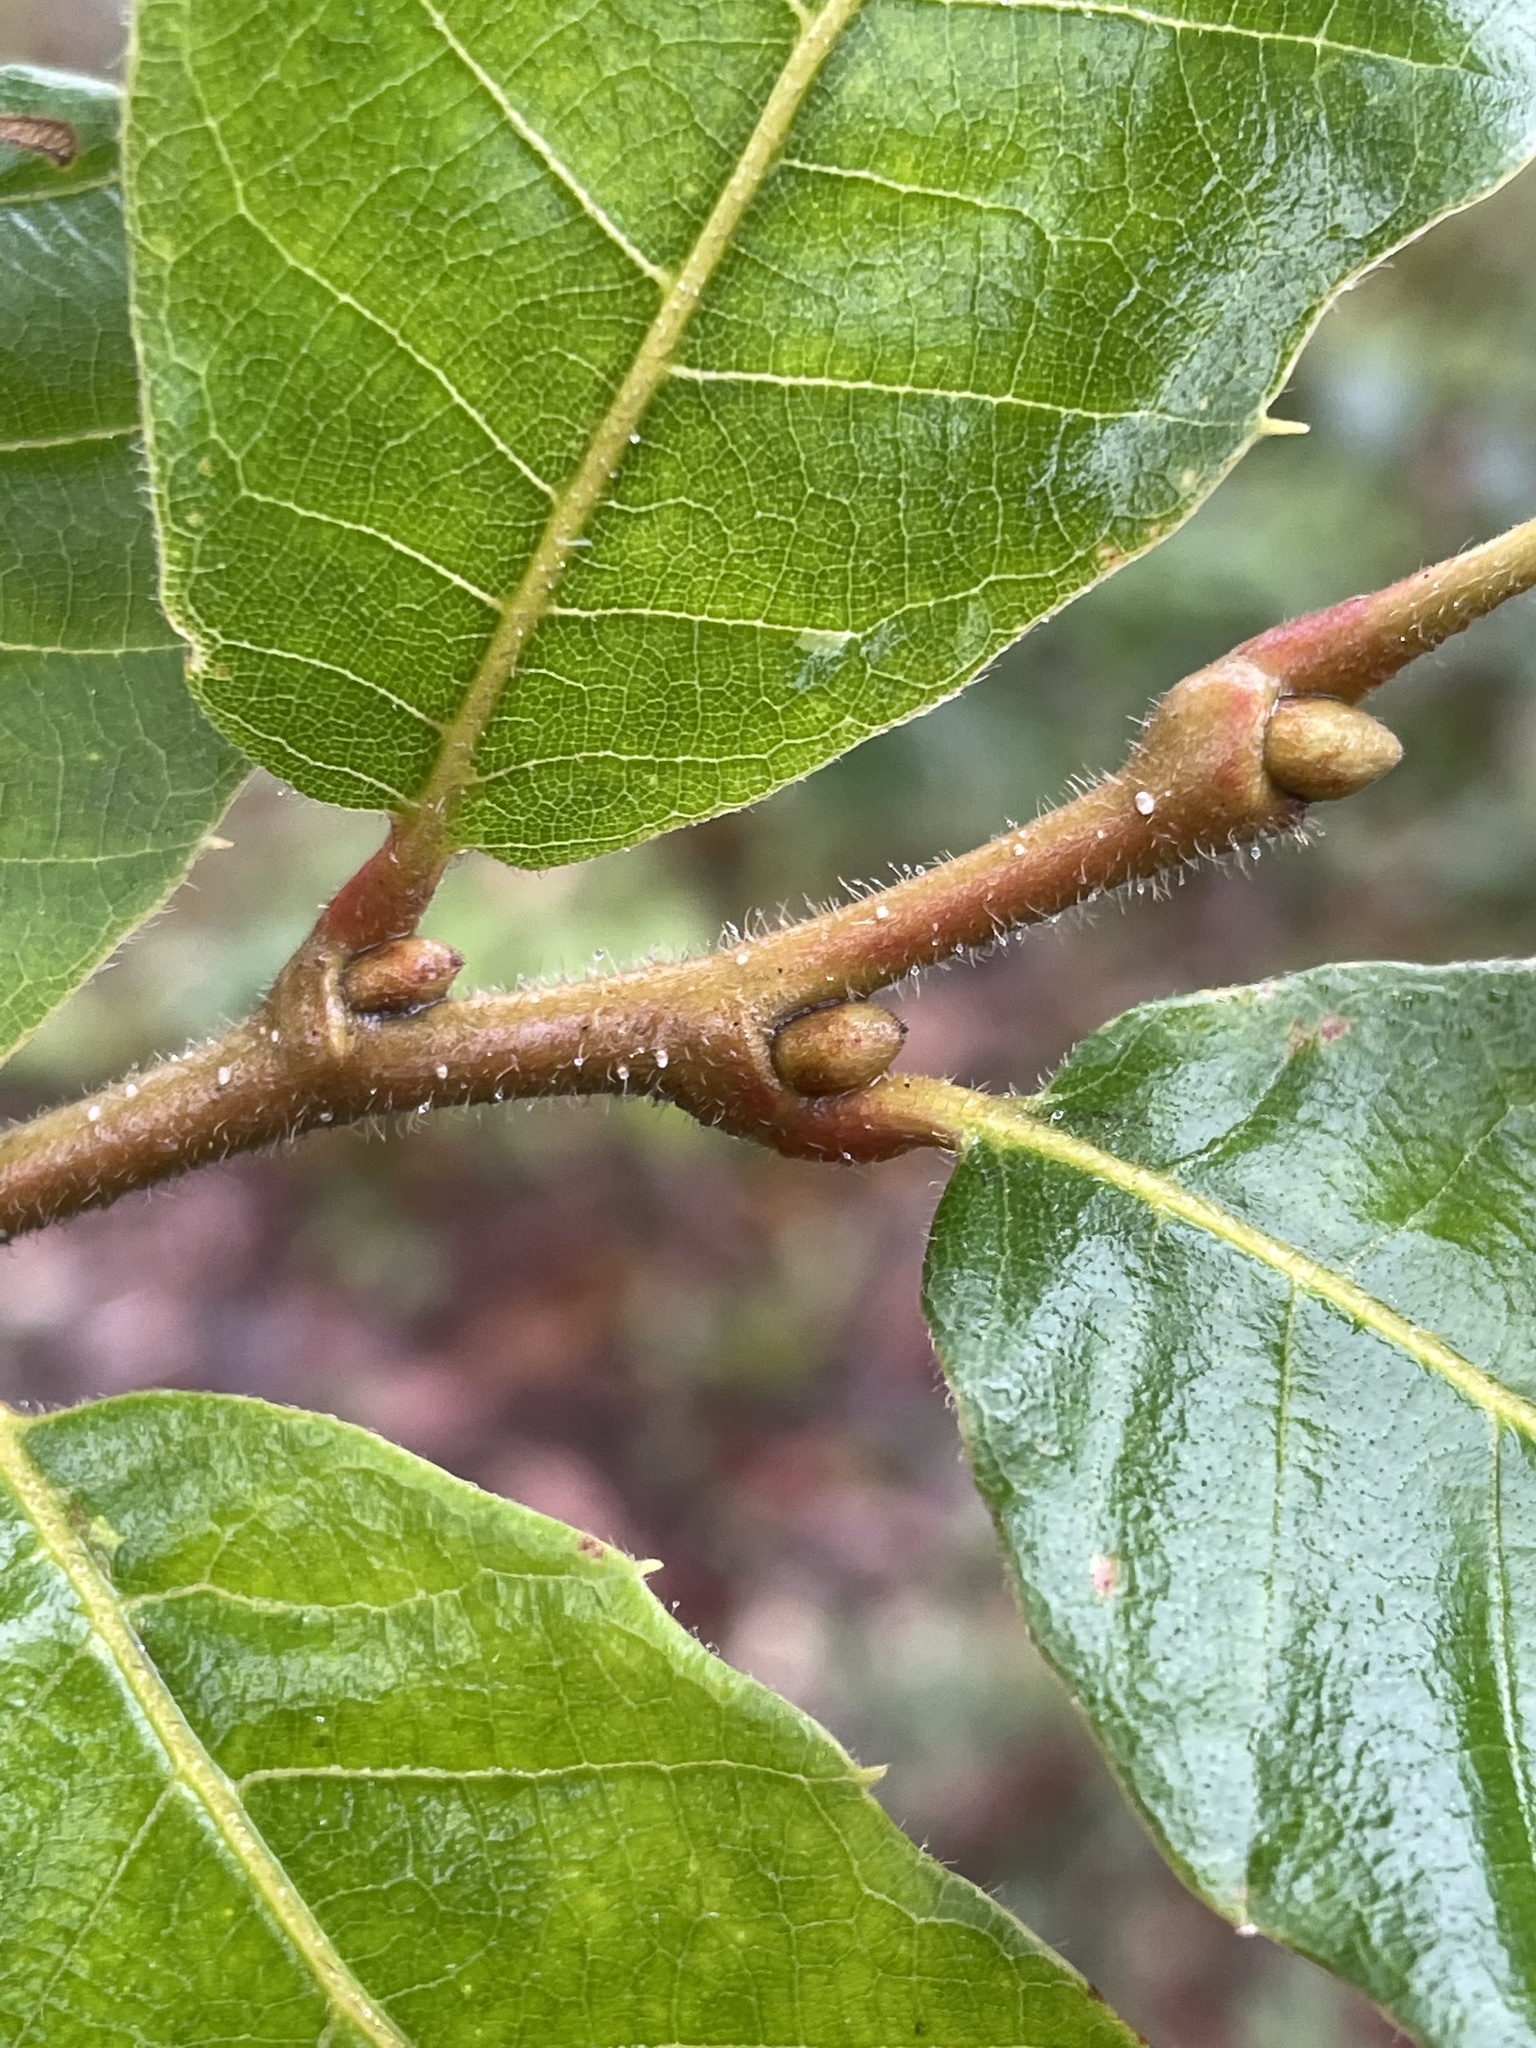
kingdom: Plantae
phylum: Tracheophyta
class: Magnoliopsida
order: Fagales
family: Fagaceae
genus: Quercus
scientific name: Quercus muehlenbergii
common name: Chinkapin oak
